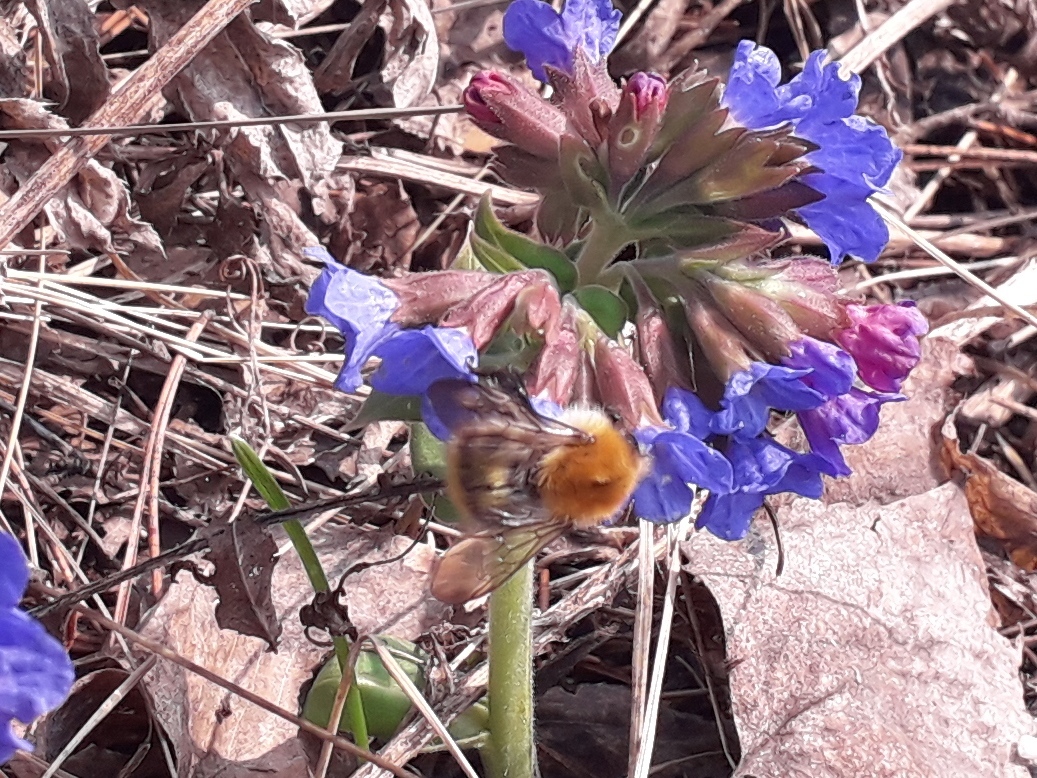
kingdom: Animalia
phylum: Arthropoda
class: Insecta
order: Hymenoptera
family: Apidae
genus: Bombus
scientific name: Bombus pascuorum
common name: Common carder bee
